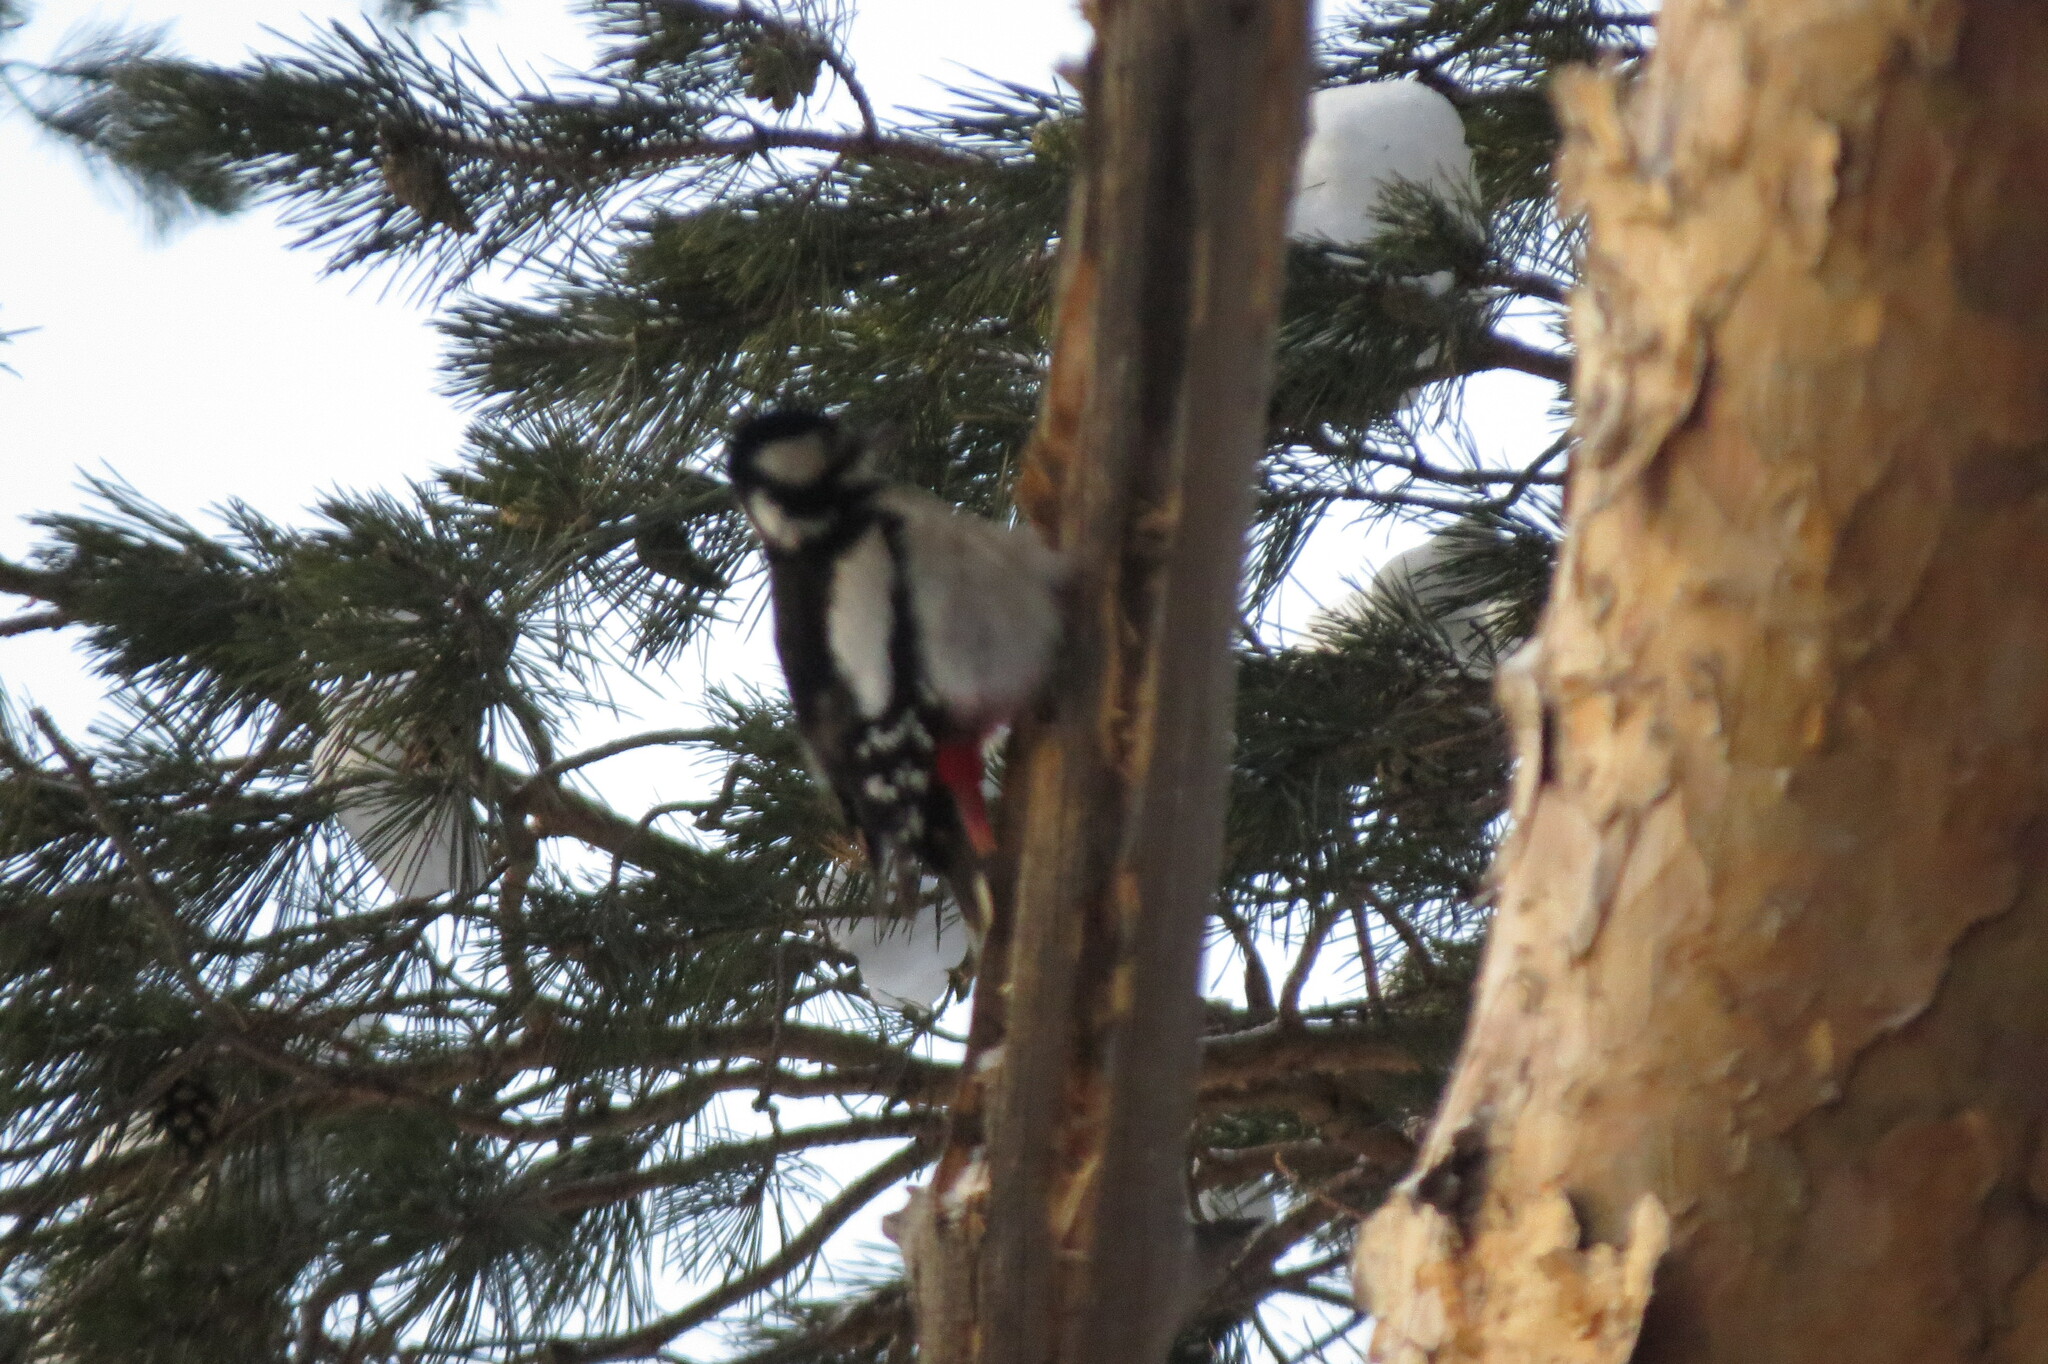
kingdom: Animalia
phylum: Chordata
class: Aves
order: Piciformes
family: Picidae
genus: Dendrocopos
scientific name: Dendrocopos major
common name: Great spotted woodpecker
